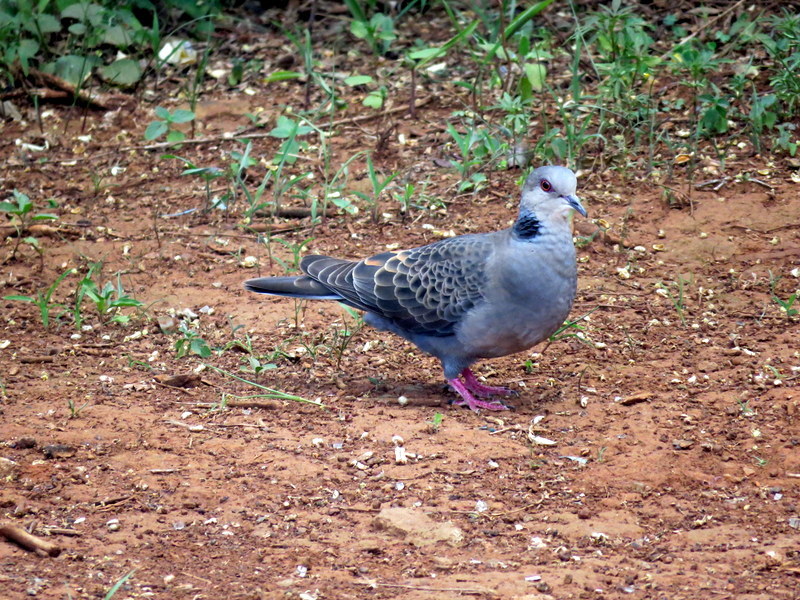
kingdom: Animalia
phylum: Chordata
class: Aves
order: Columbiformes
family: Columbidae
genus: Streptopelia
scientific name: Streptopelia lugens
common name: Dusky turtle dove
